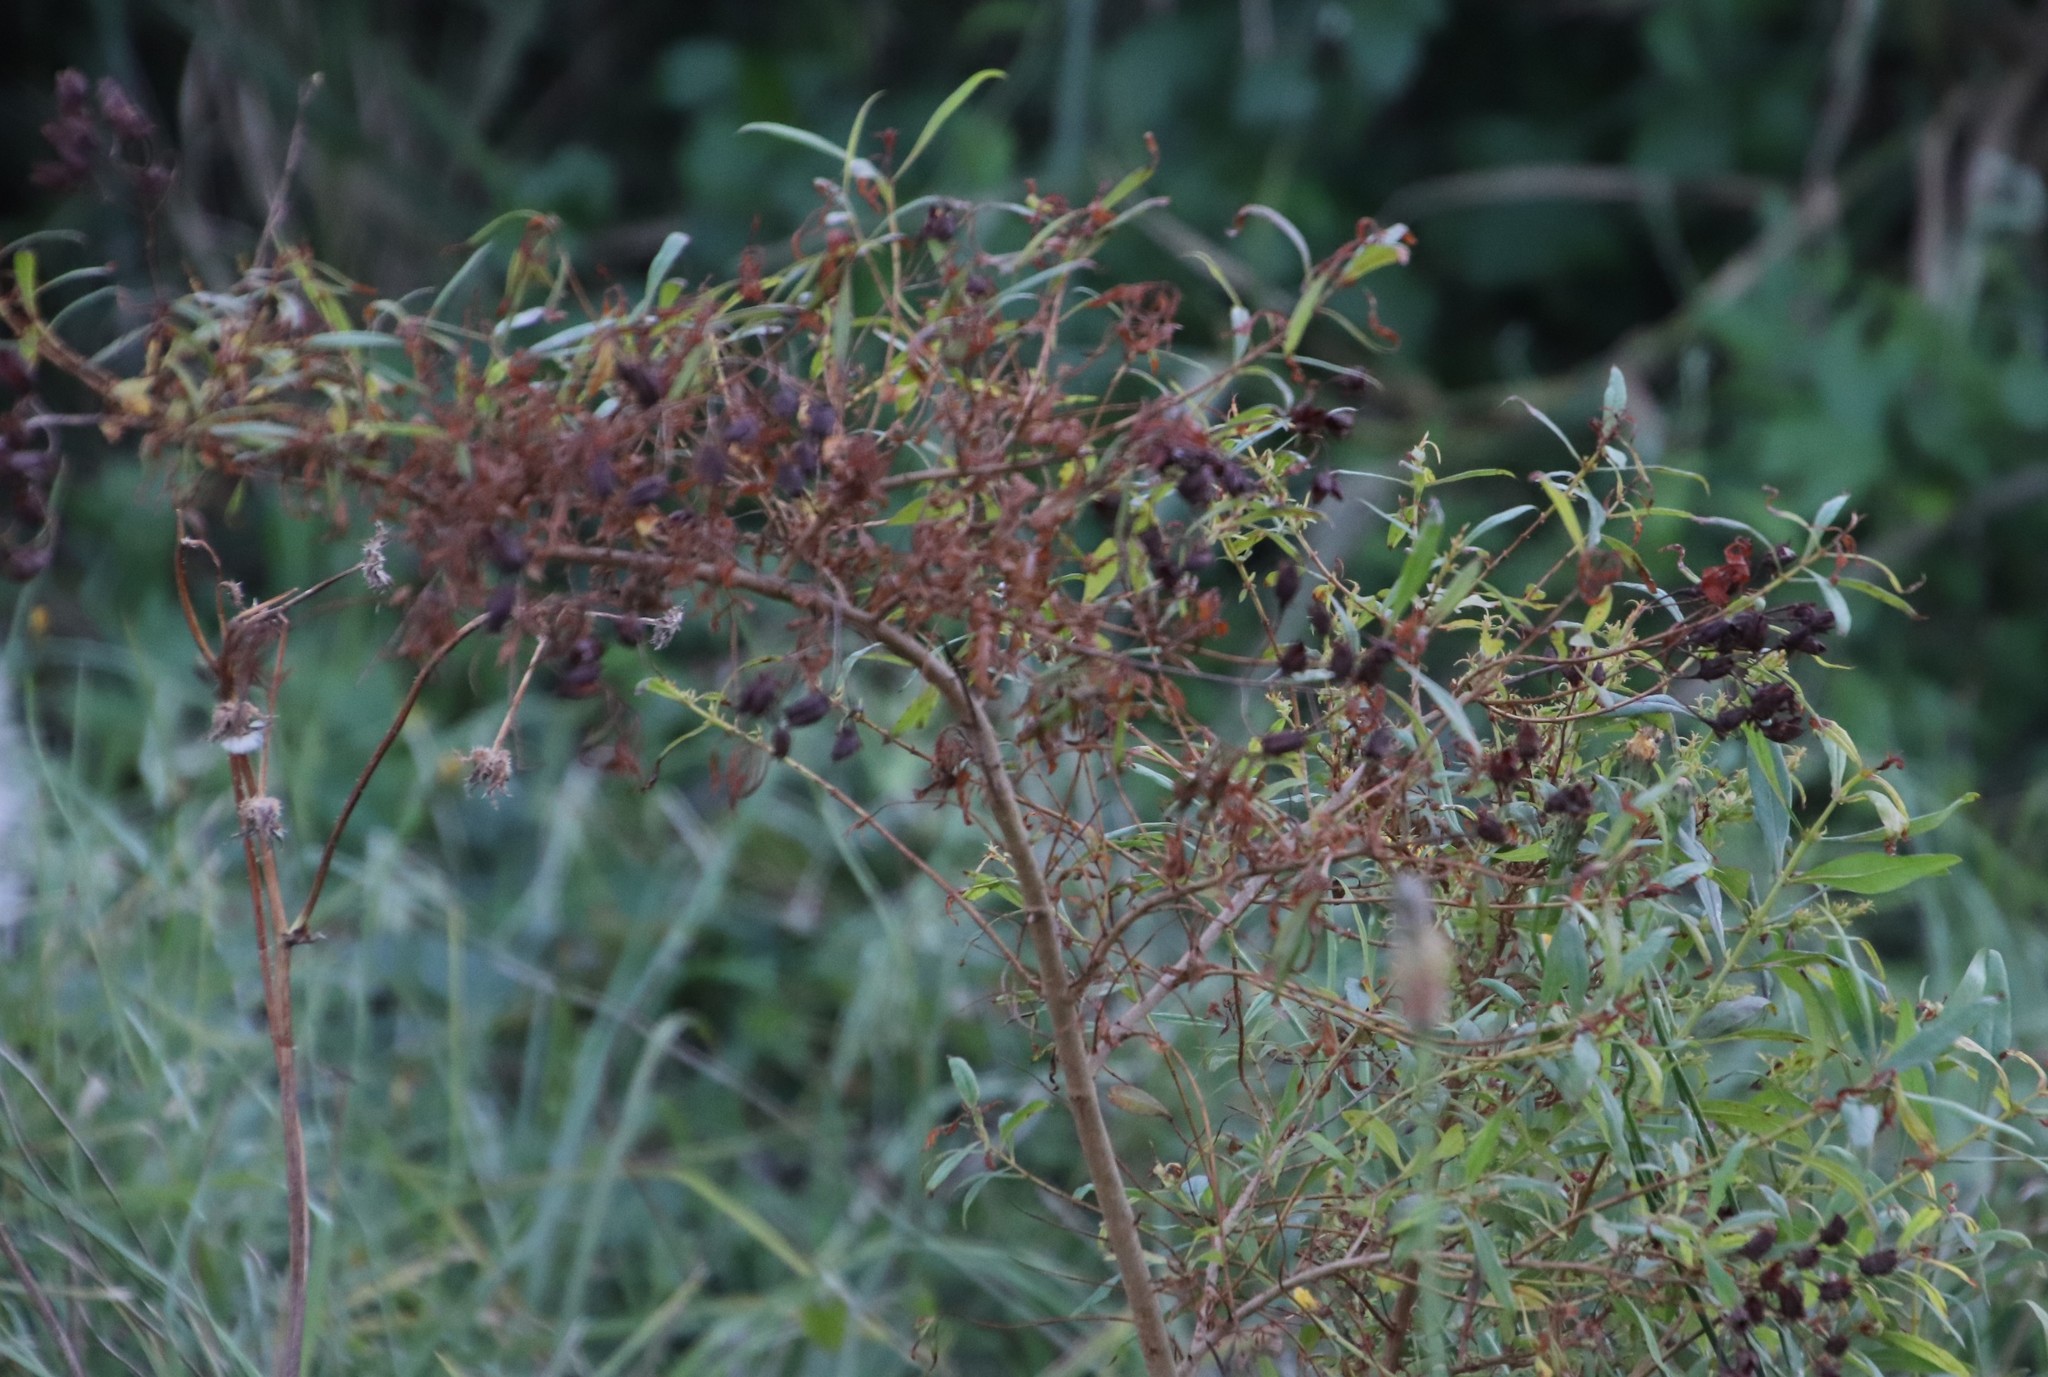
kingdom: Plantae
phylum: Tracheophyta
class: Magnoliopsida
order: Malpighiales
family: Hypericaceae
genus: Hypericum
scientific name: Hypericum canariense
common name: Canary island st. johnswort
